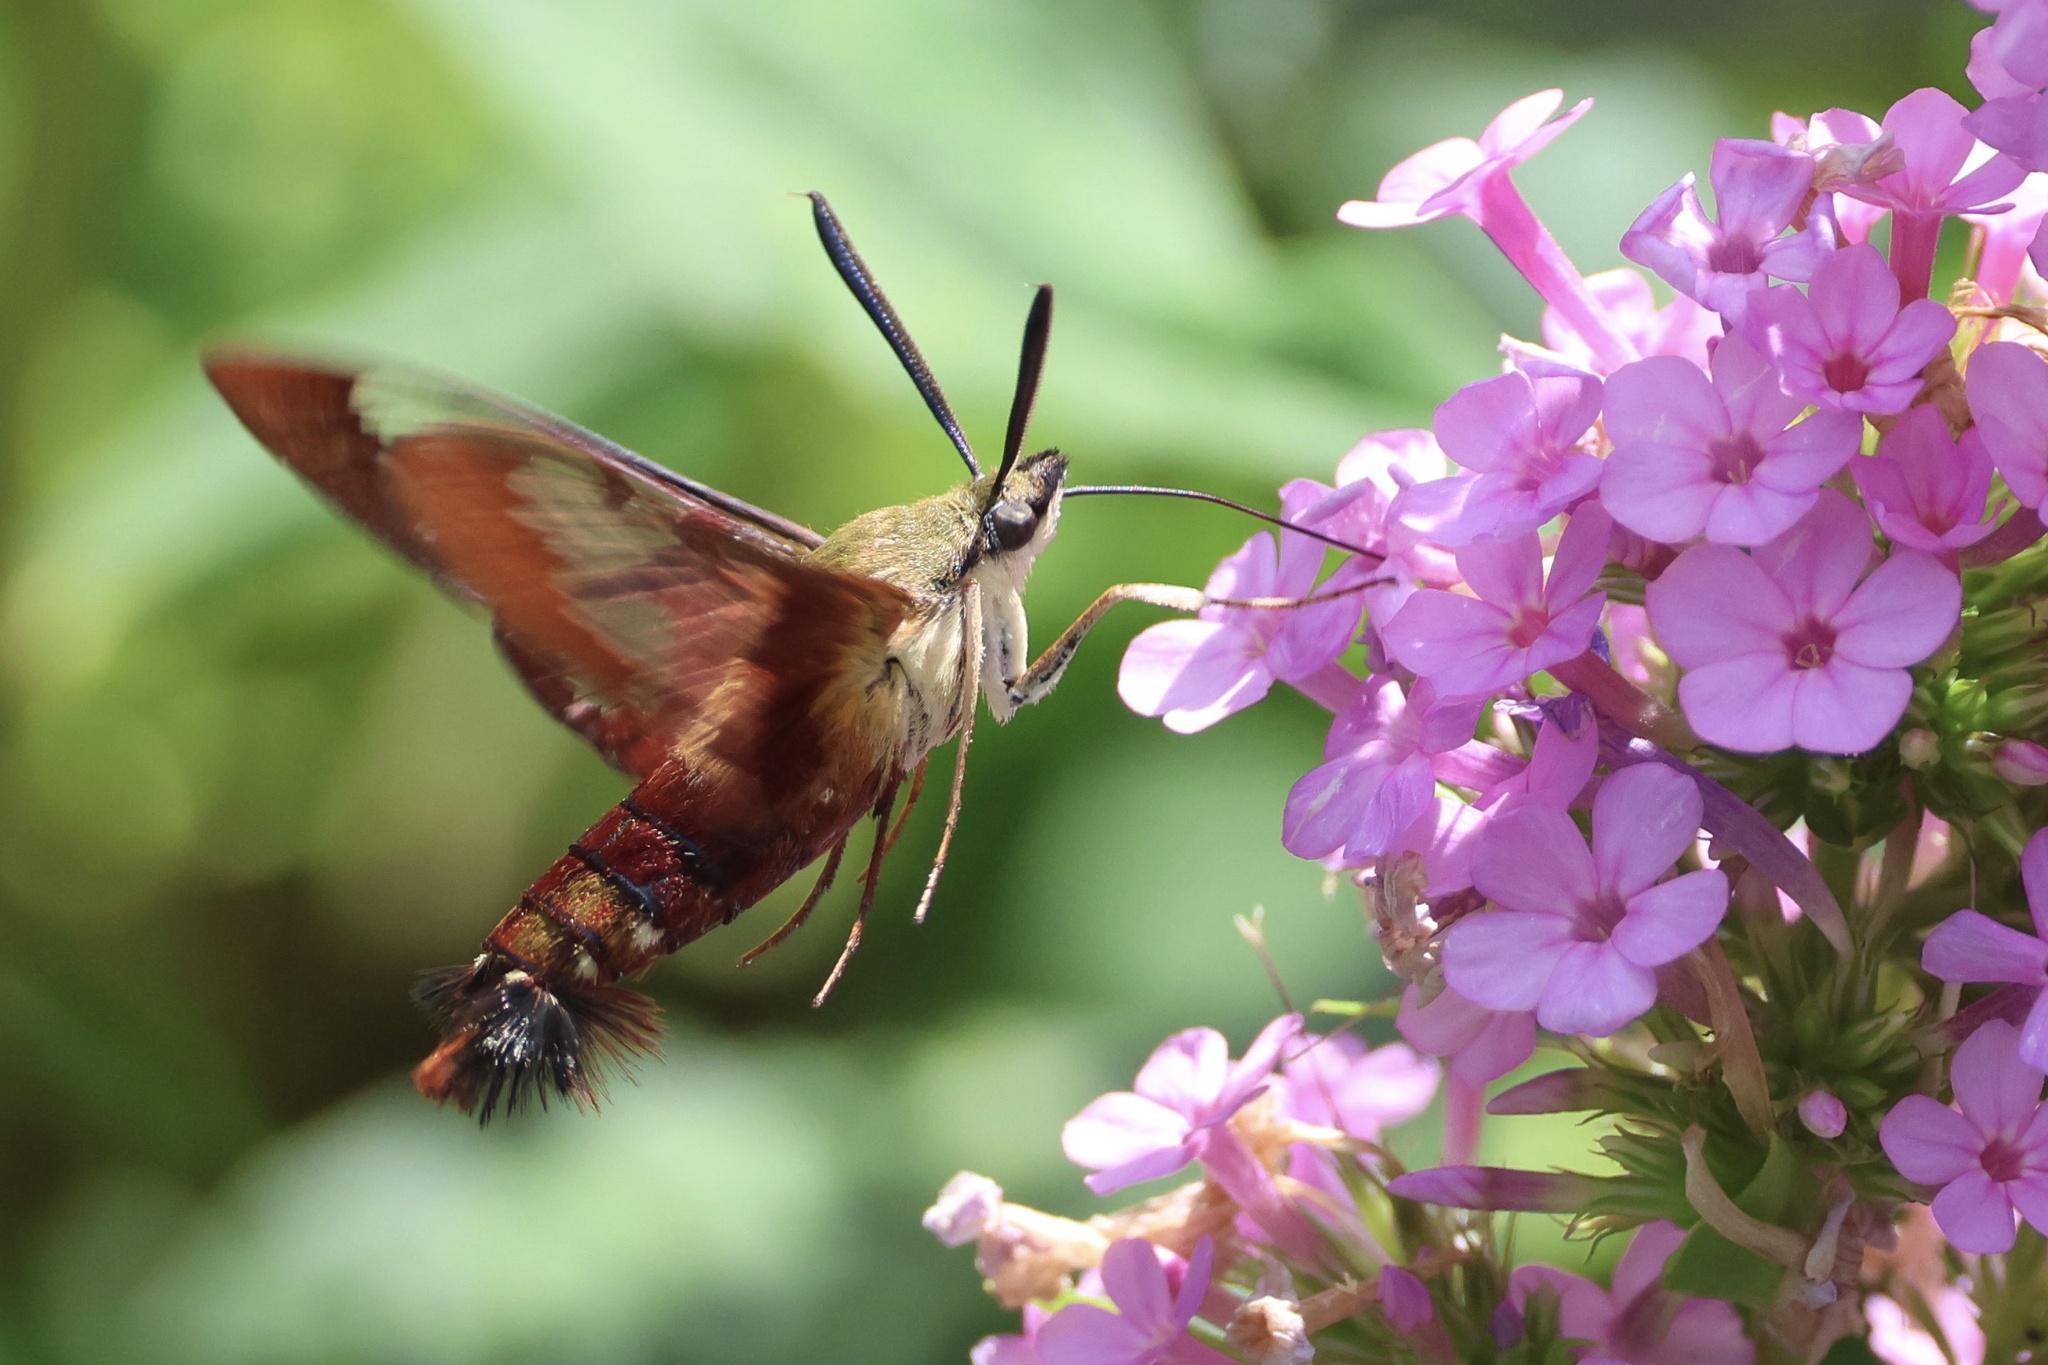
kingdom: Animalia
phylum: Arthropoda
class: Insecta
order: Lepidoptera
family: Sphingidae
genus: Hemaris
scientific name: Hemaris thysbe
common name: Common clear-wing
